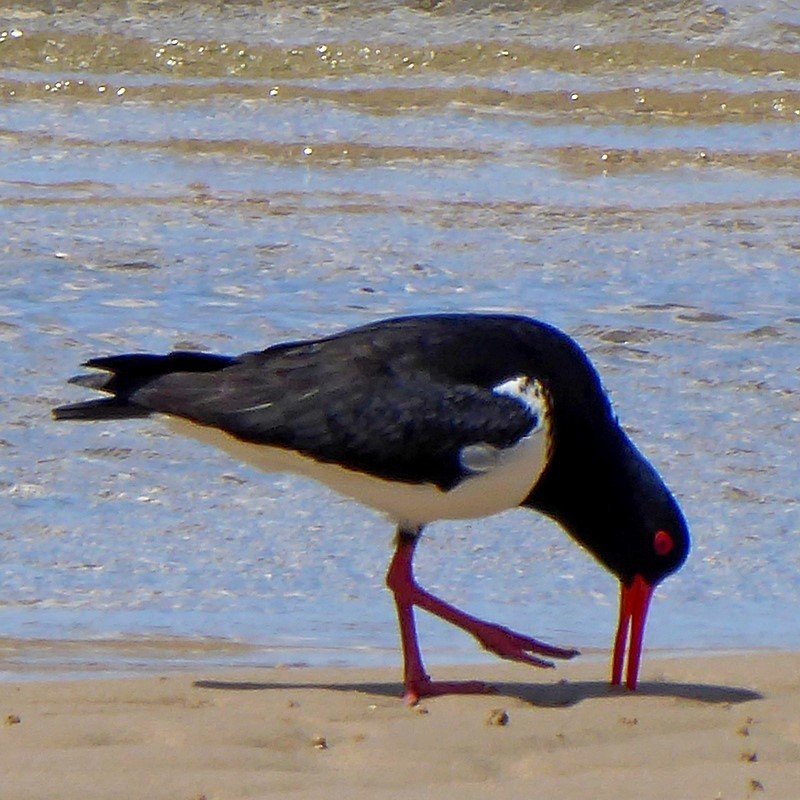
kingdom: Animalia
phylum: Chordata
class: Aves
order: Charadriiformes
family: Haematopodidae
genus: Haematopus
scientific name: Haematopus longirostris
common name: Pied oystercatcher
